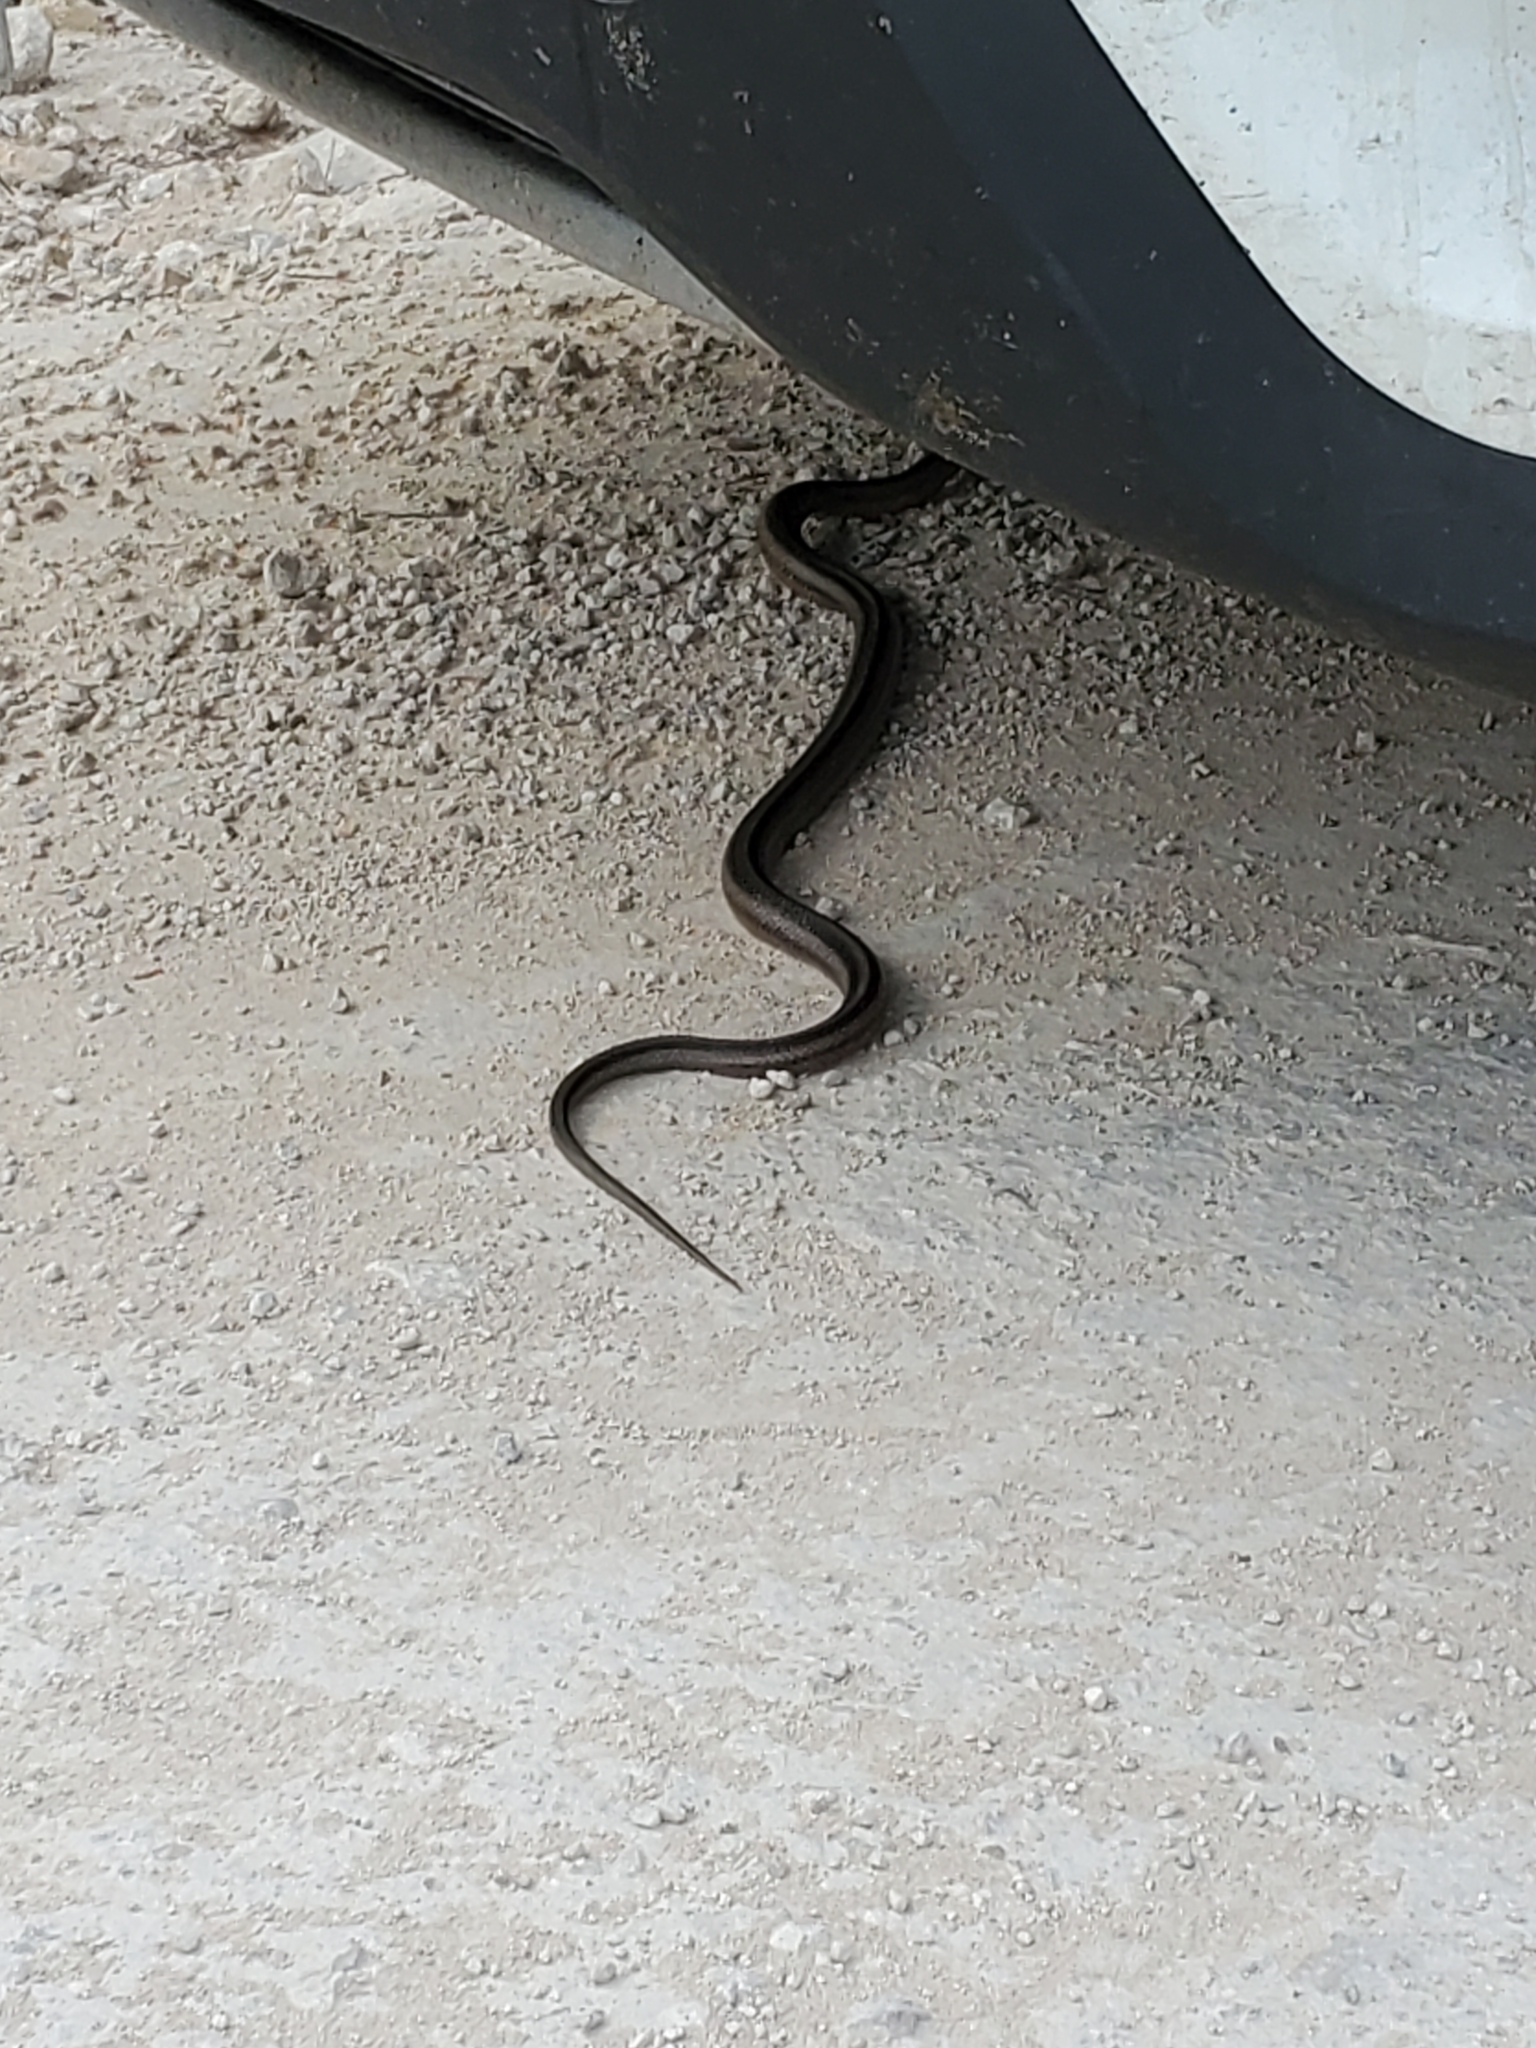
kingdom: Animalia
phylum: Chordata
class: Squamata
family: Colubridae
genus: Pantherophis
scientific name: Pantherophis bairdi
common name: Baird's rat snake
